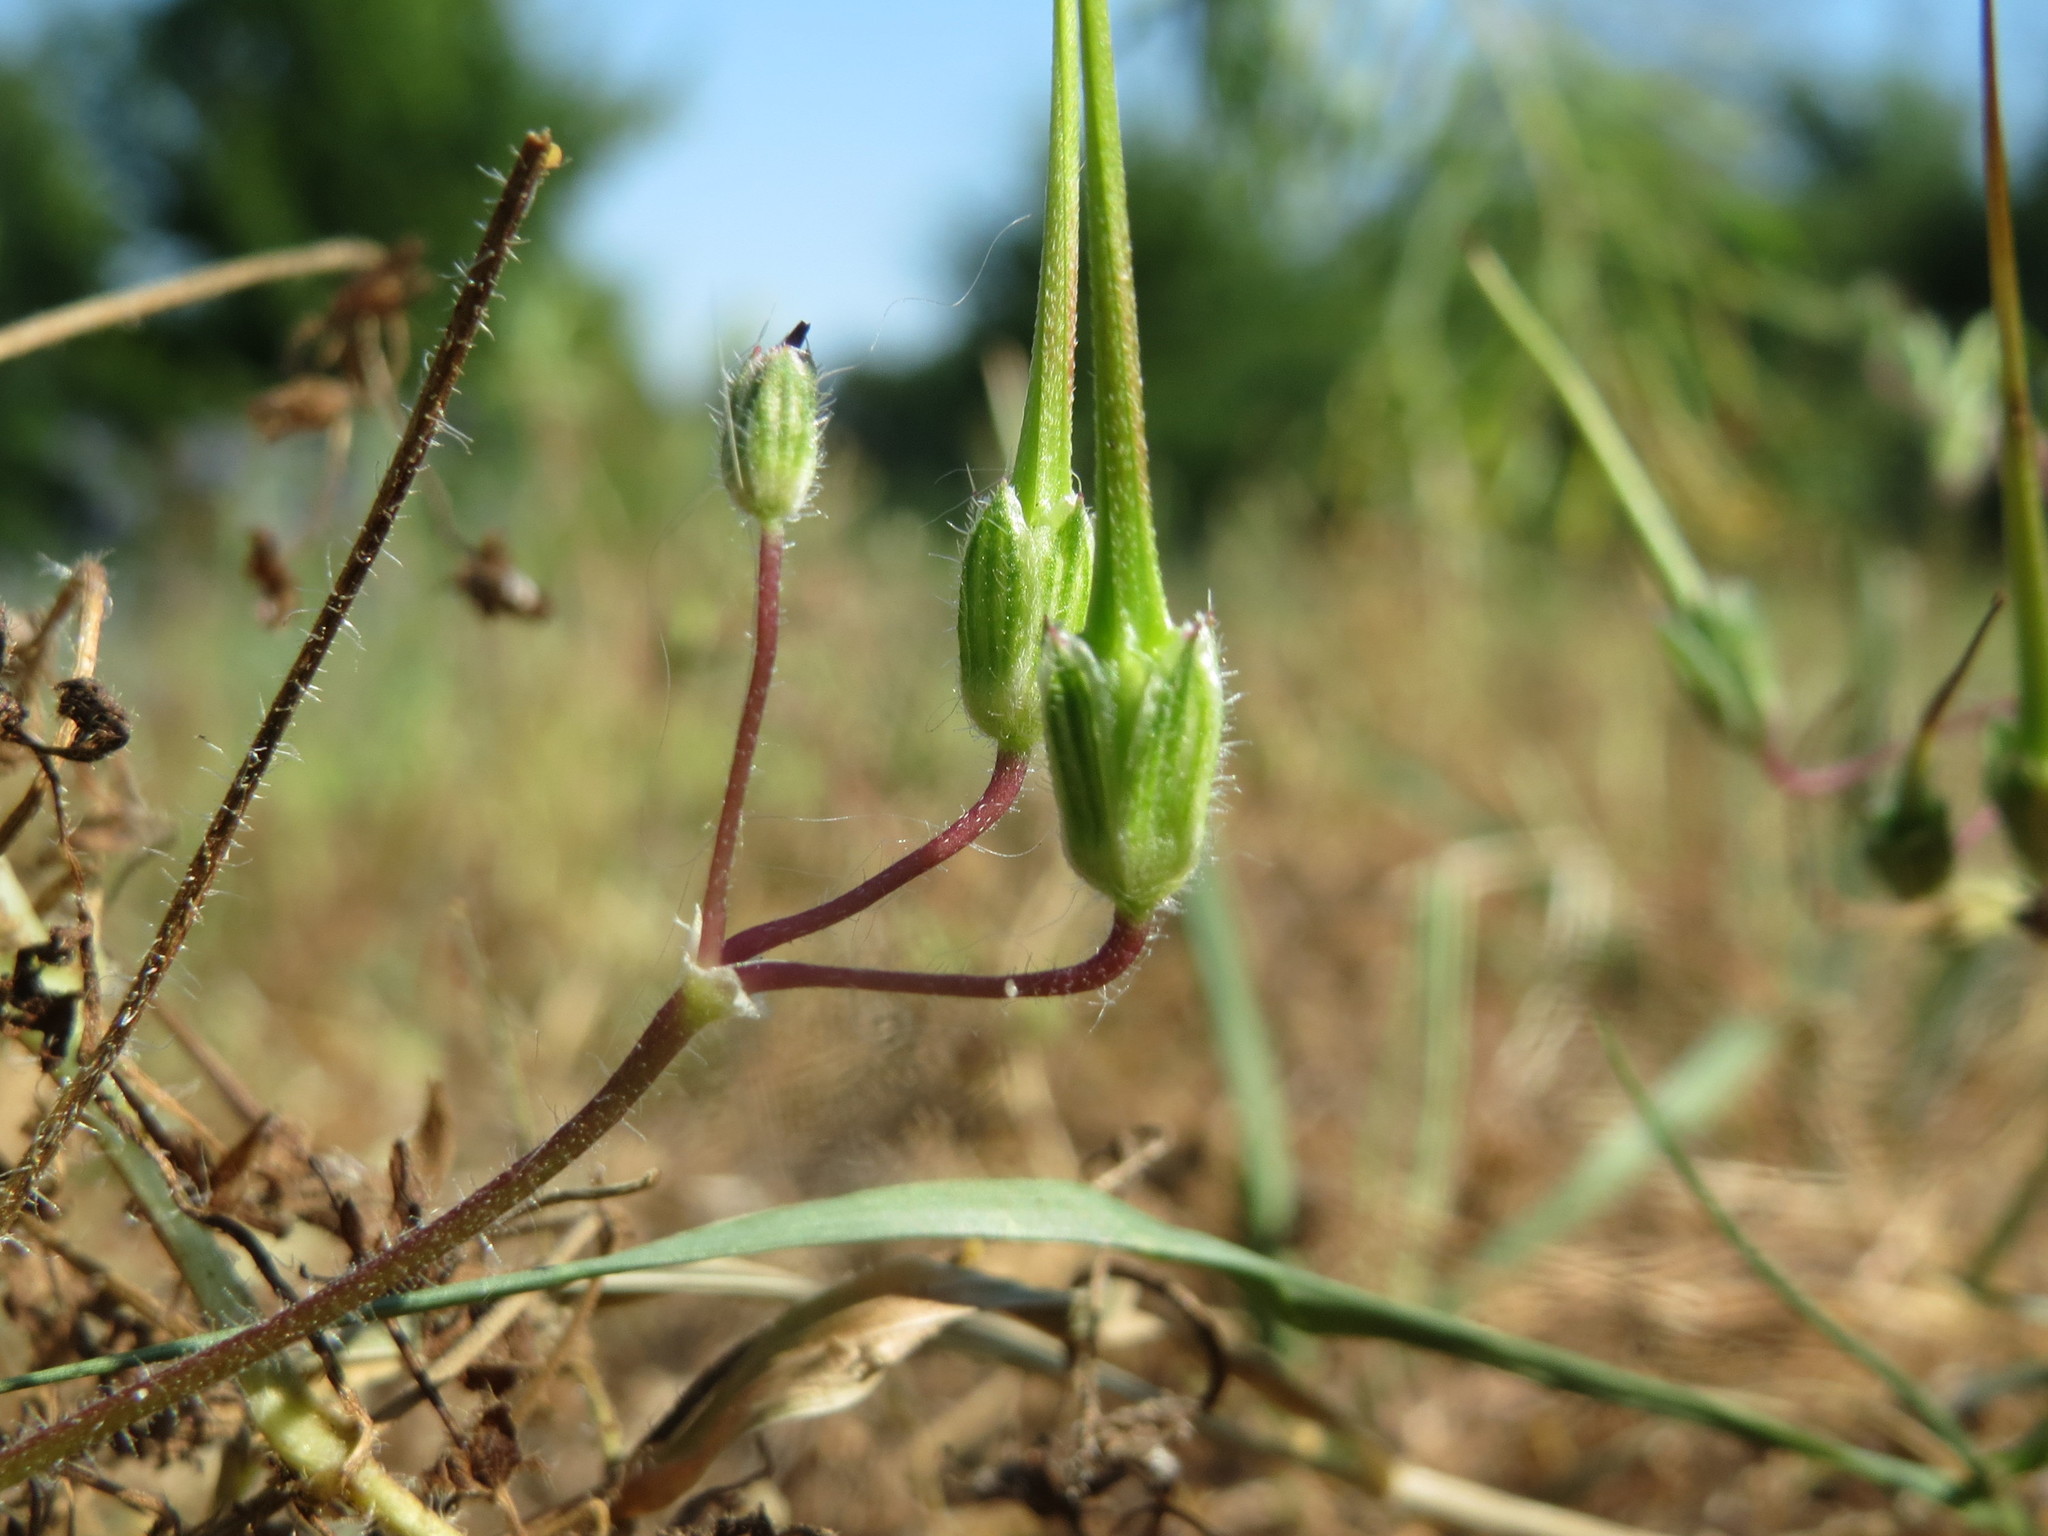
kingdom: Plantae
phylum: Tracheophyta
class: Magnoliopsida
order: Geraniales
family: Geraniaceae
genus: Erodium
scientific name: Erodium cicutarium
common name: Common stork's-bill
